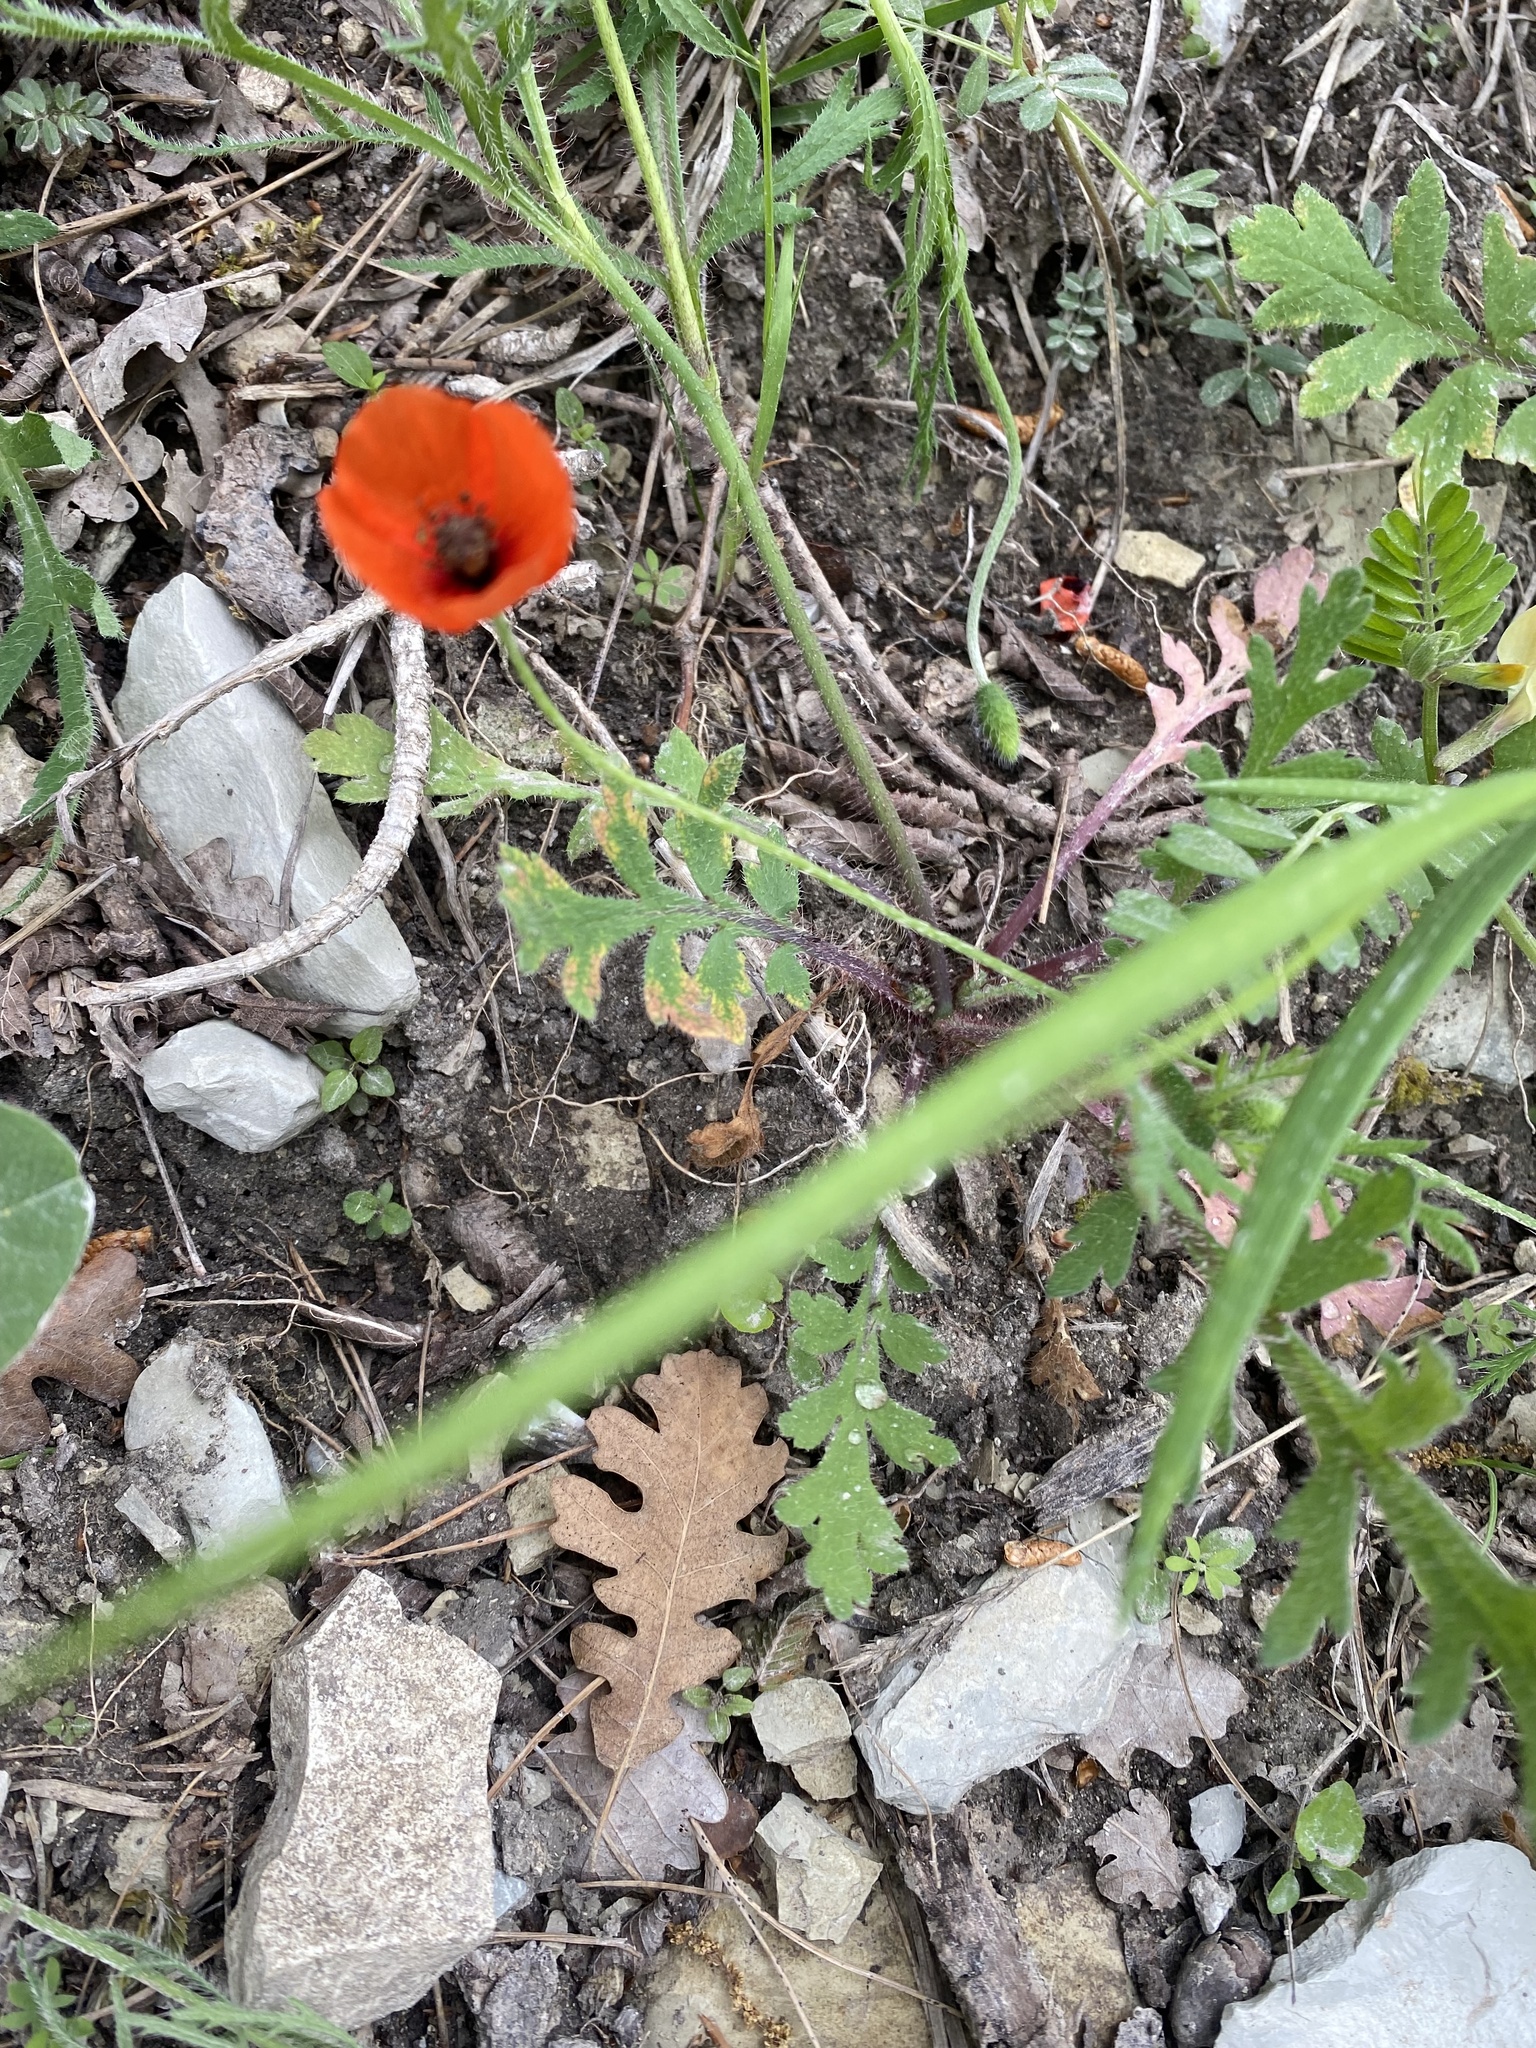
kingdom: Plantae
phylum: Tracheophyta
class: Magnoliopsida
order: Ranunculales
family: Papaveraceae
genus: Papaver
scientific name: Papaver dubium
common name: Long-headed poppy
